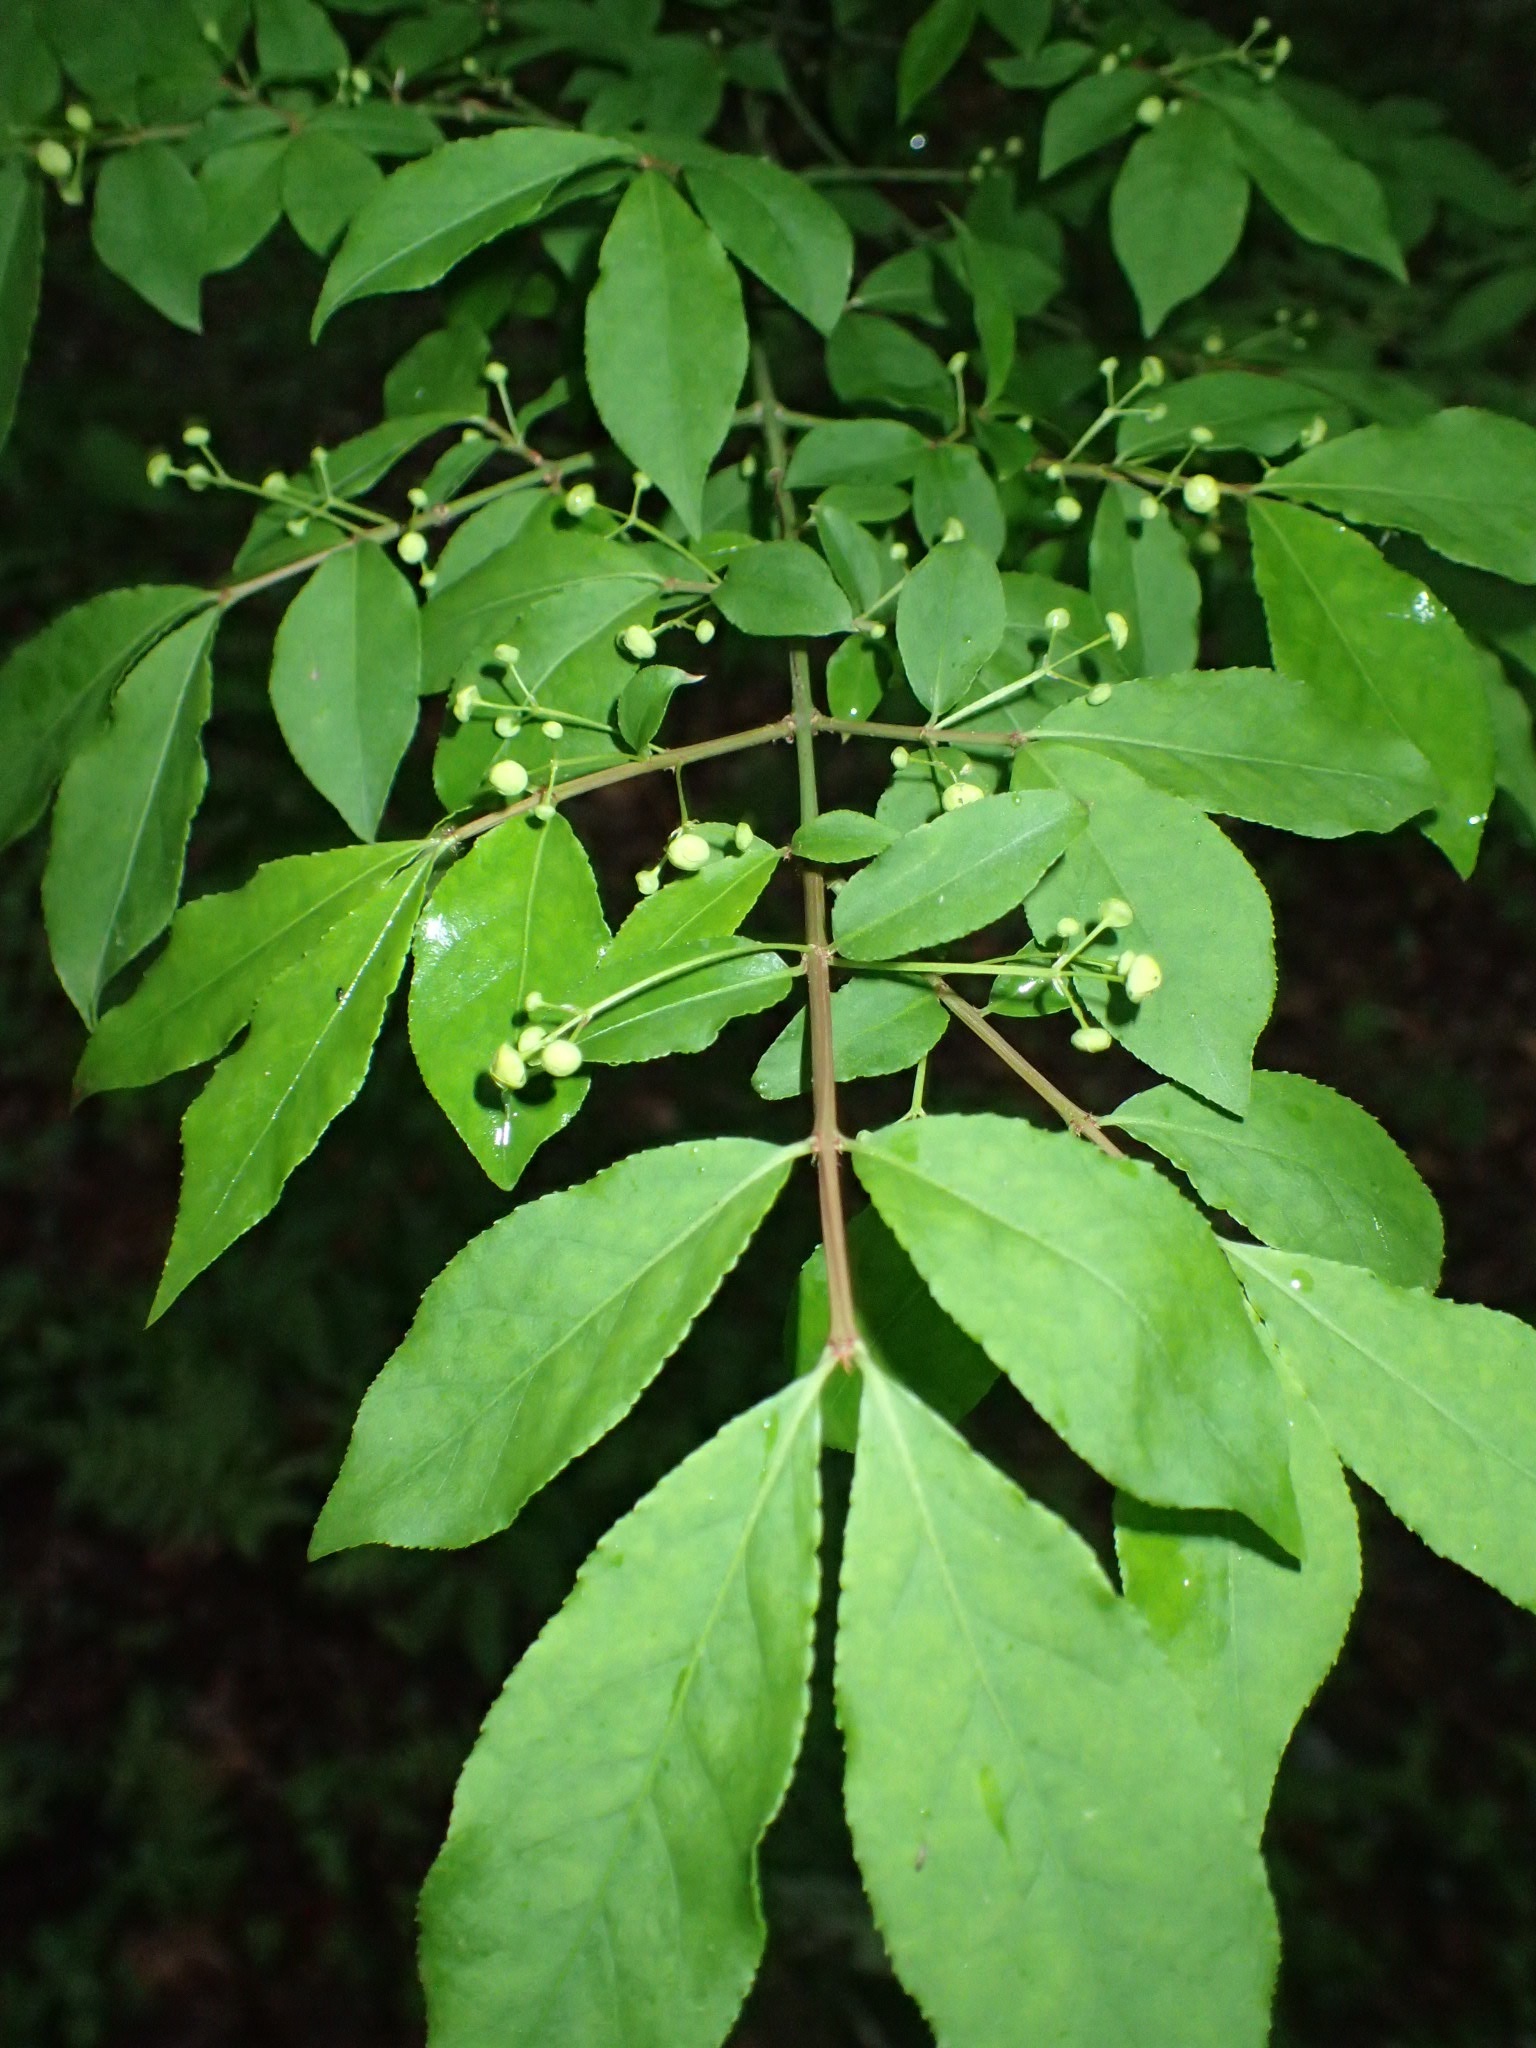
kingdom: Plantae
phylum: Tracheophyta
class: Magnoliopsida
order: Celastrales
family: Celastraceae
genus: Euonymus
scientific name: Euonymus alatus
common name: Winged euonymus
